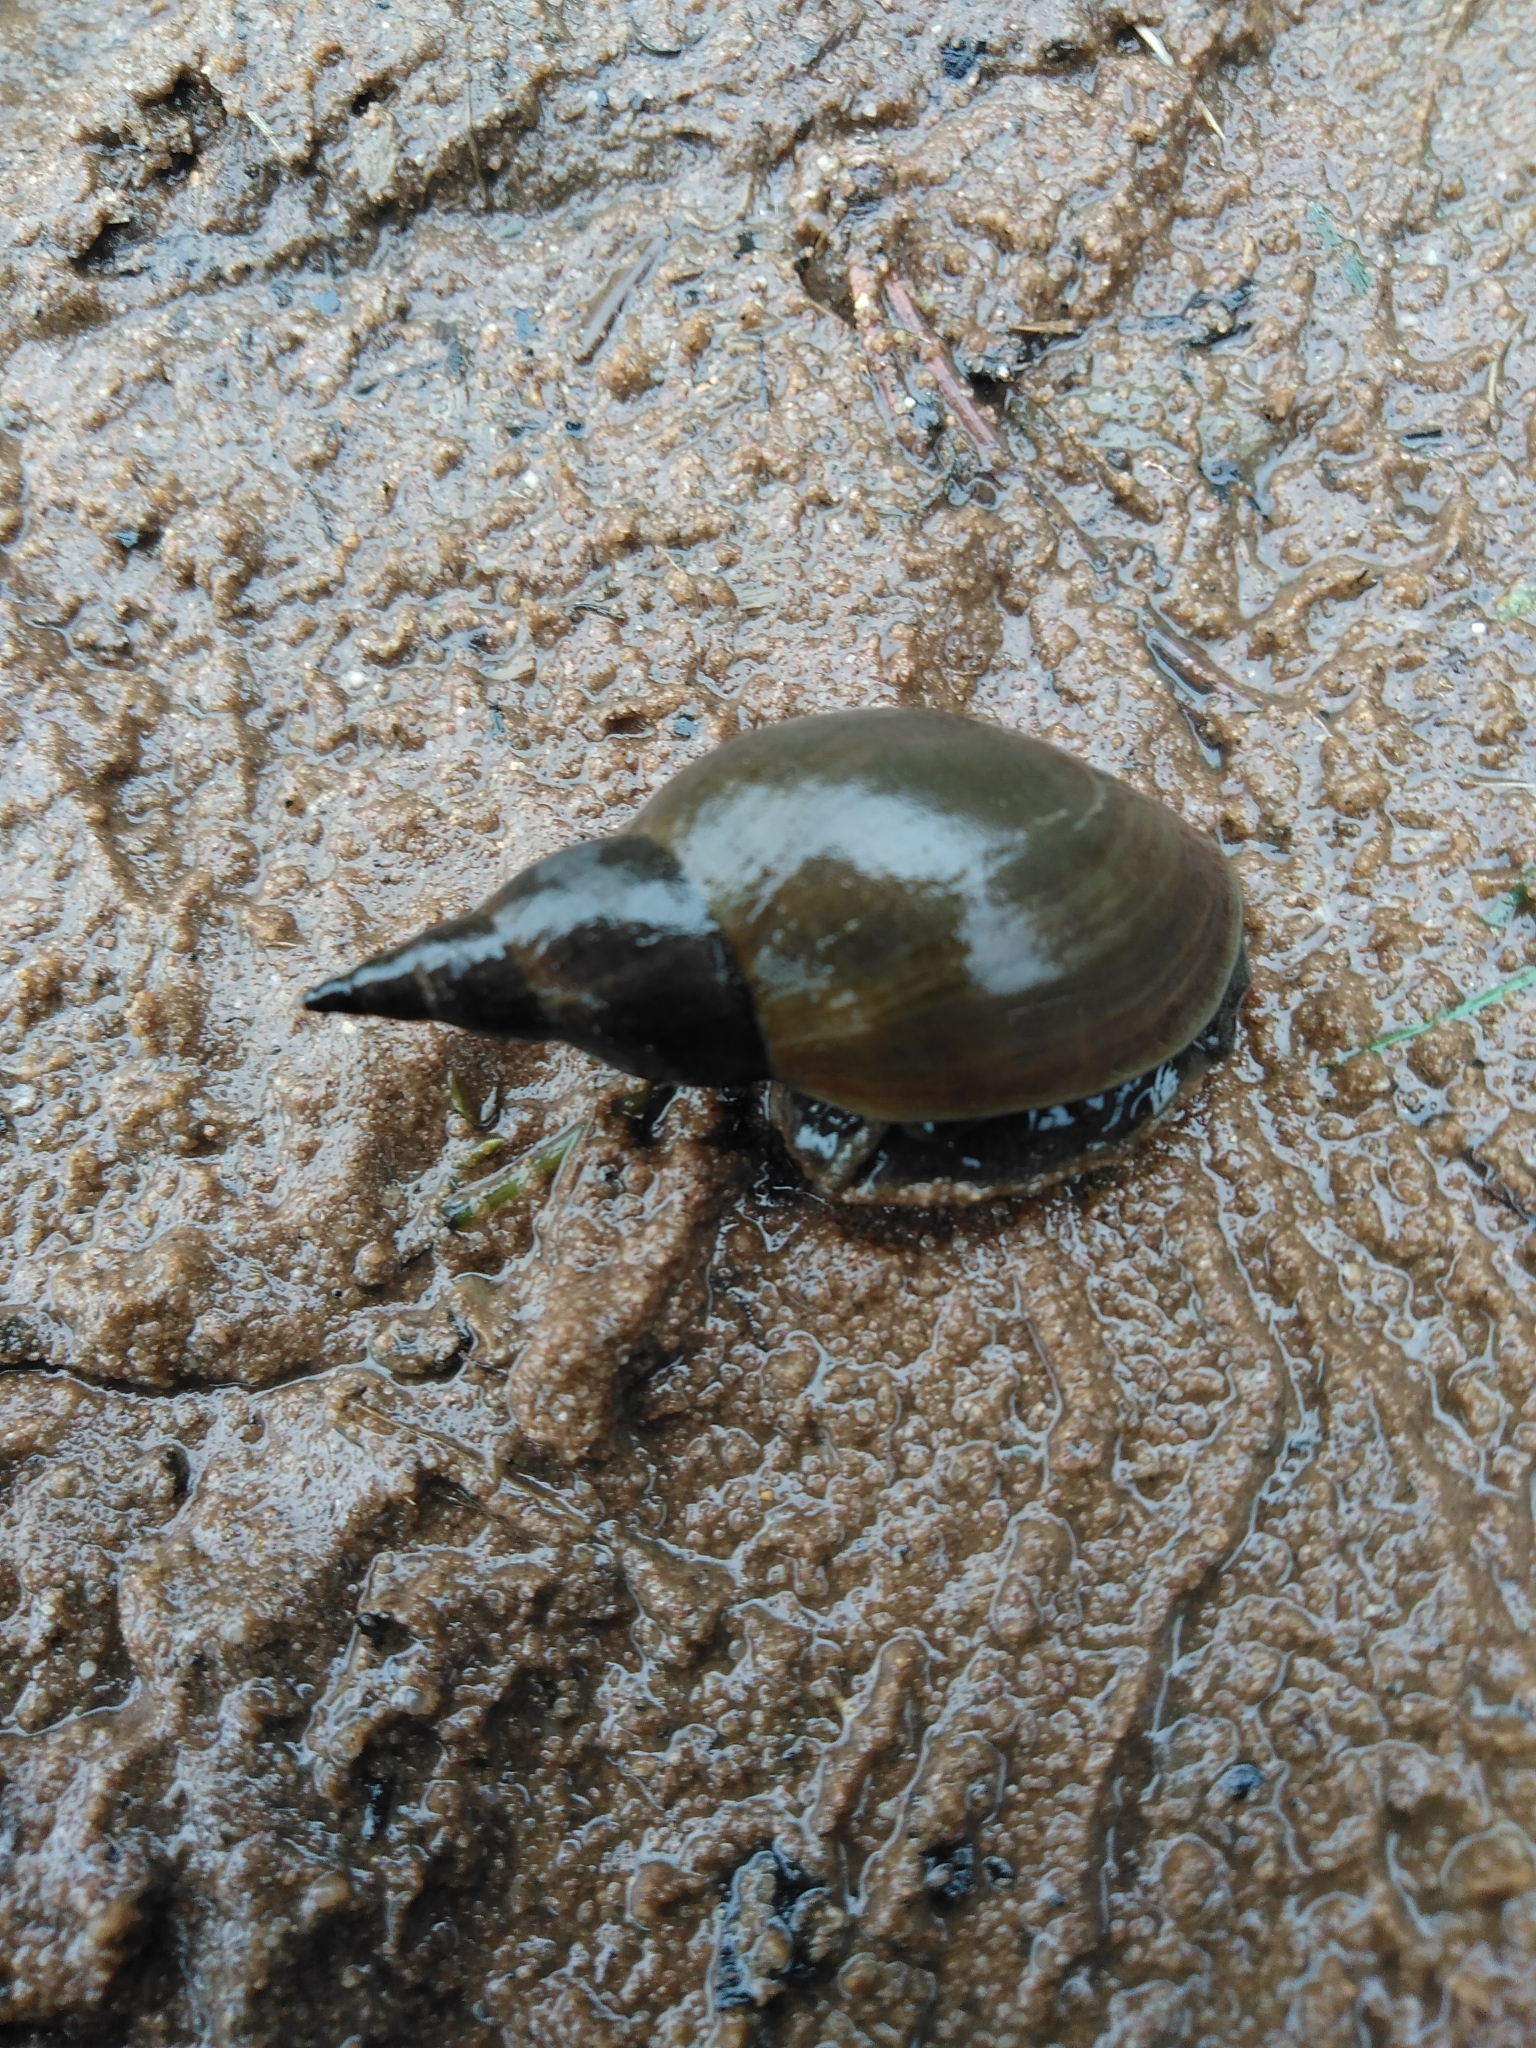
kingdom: Animalia
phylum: Mollusca
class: Gastropoda
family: Lymnaeidae
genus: Lymnaea
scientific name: Lymnaea stagnalis
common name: Great pond snail
